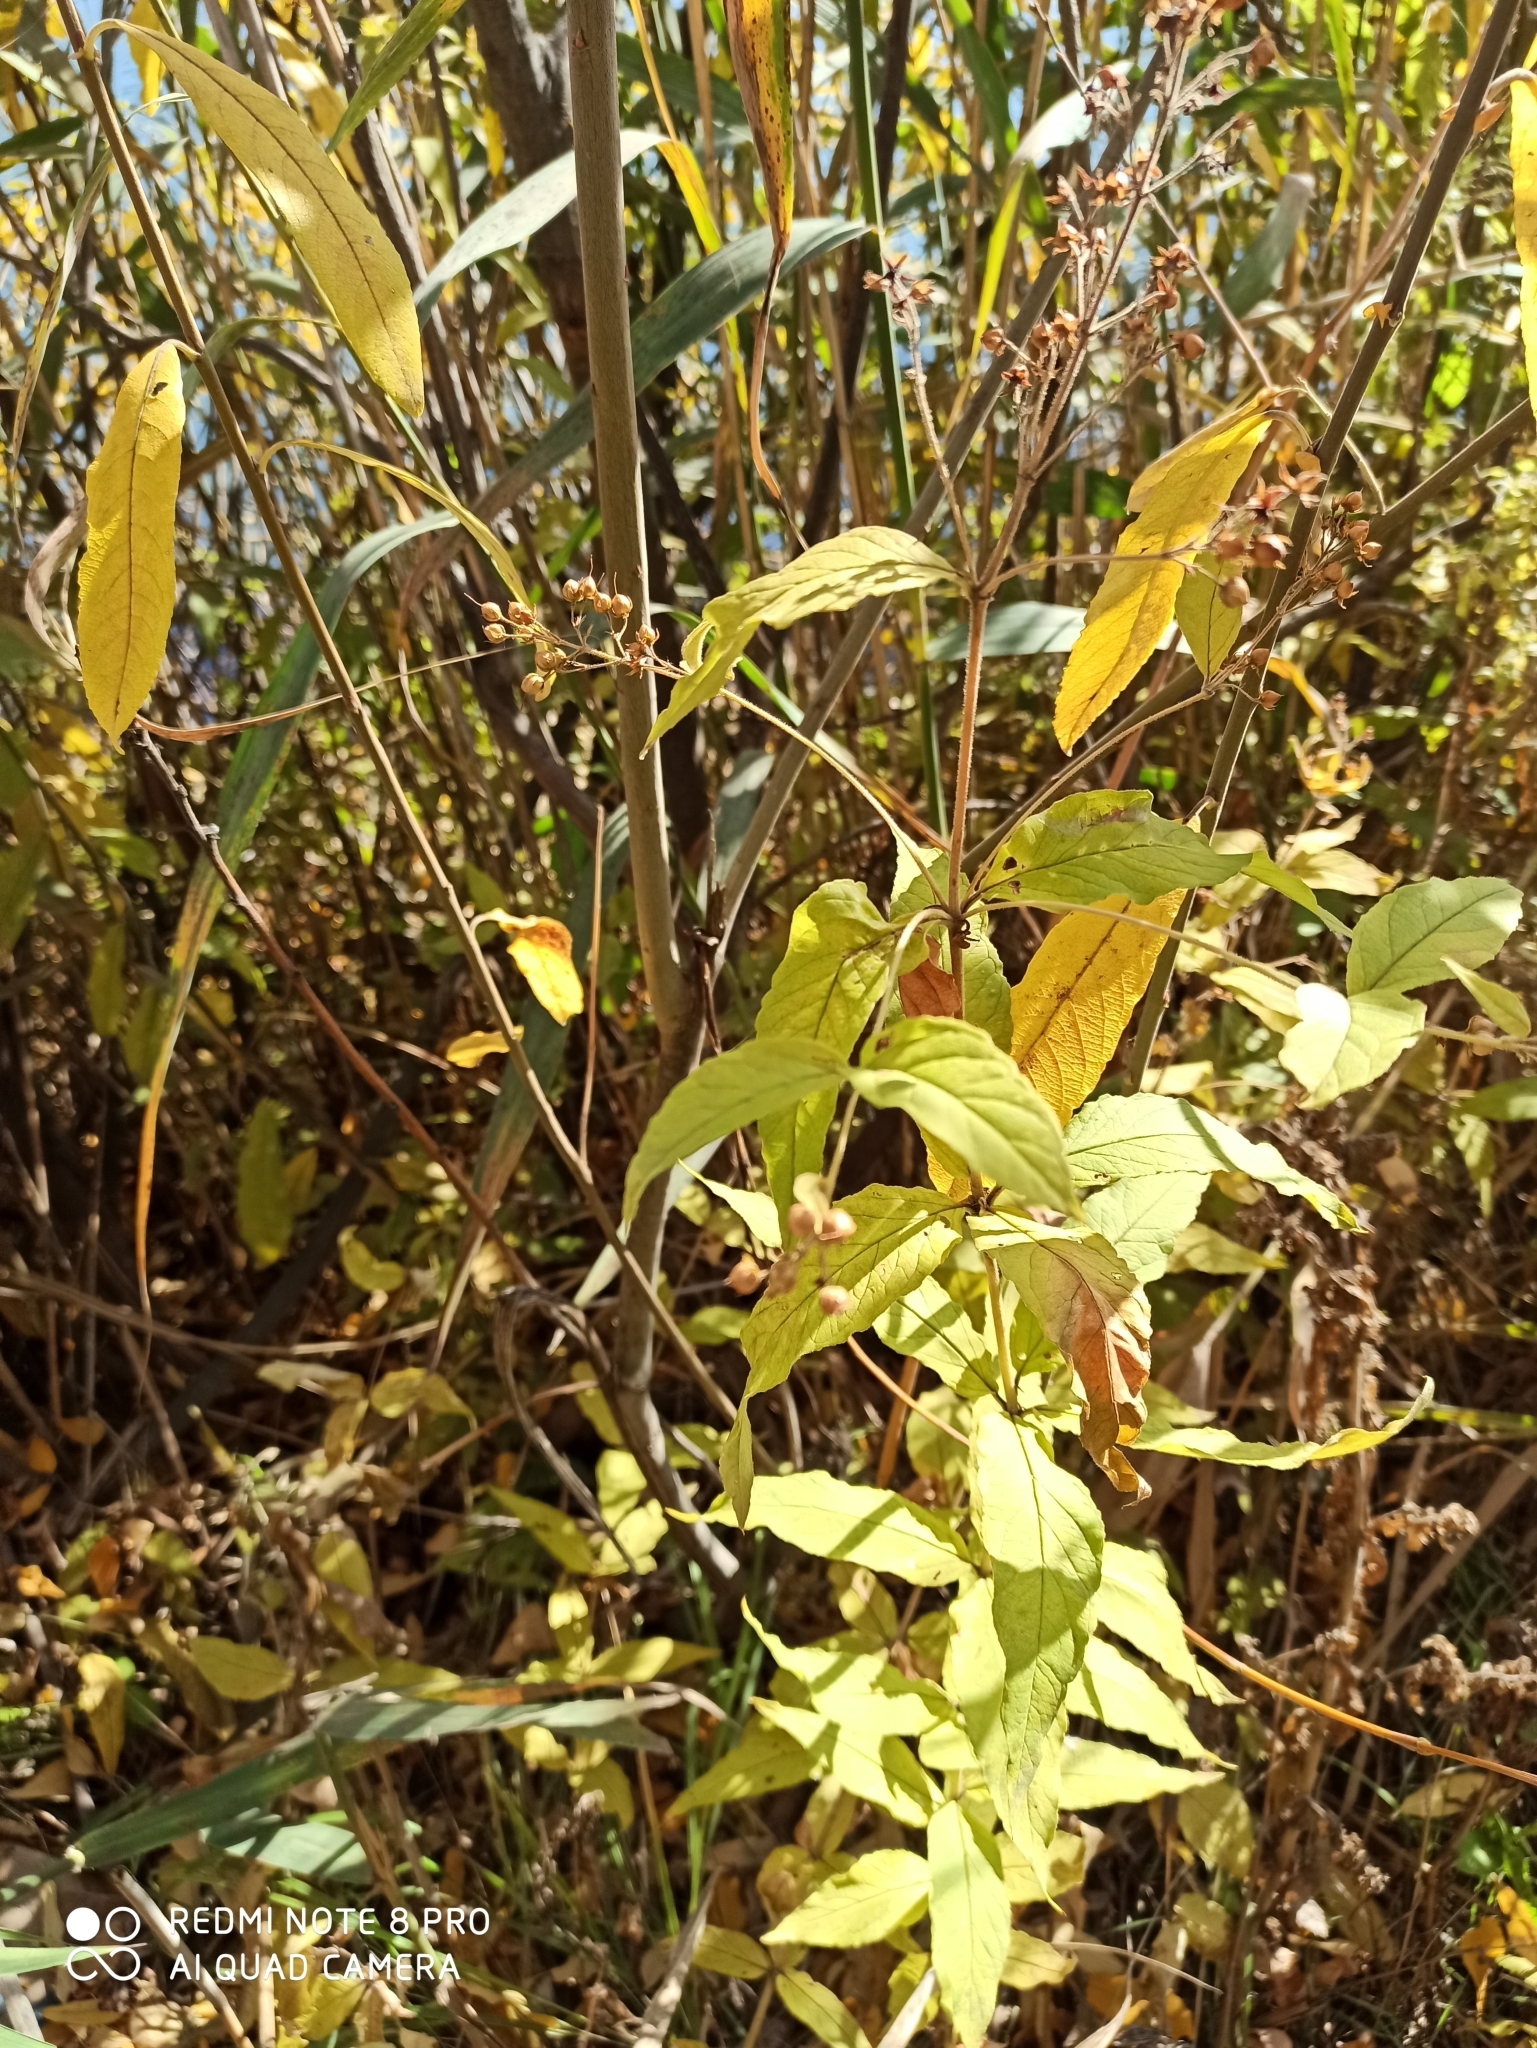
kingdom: Plantae
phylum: Tracheophyta
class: Magnoliopsida
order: Ericales
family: Primulaceae
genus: Lysimachia
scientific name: Lysimachia vulgaris
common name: Yellow loosestrife
